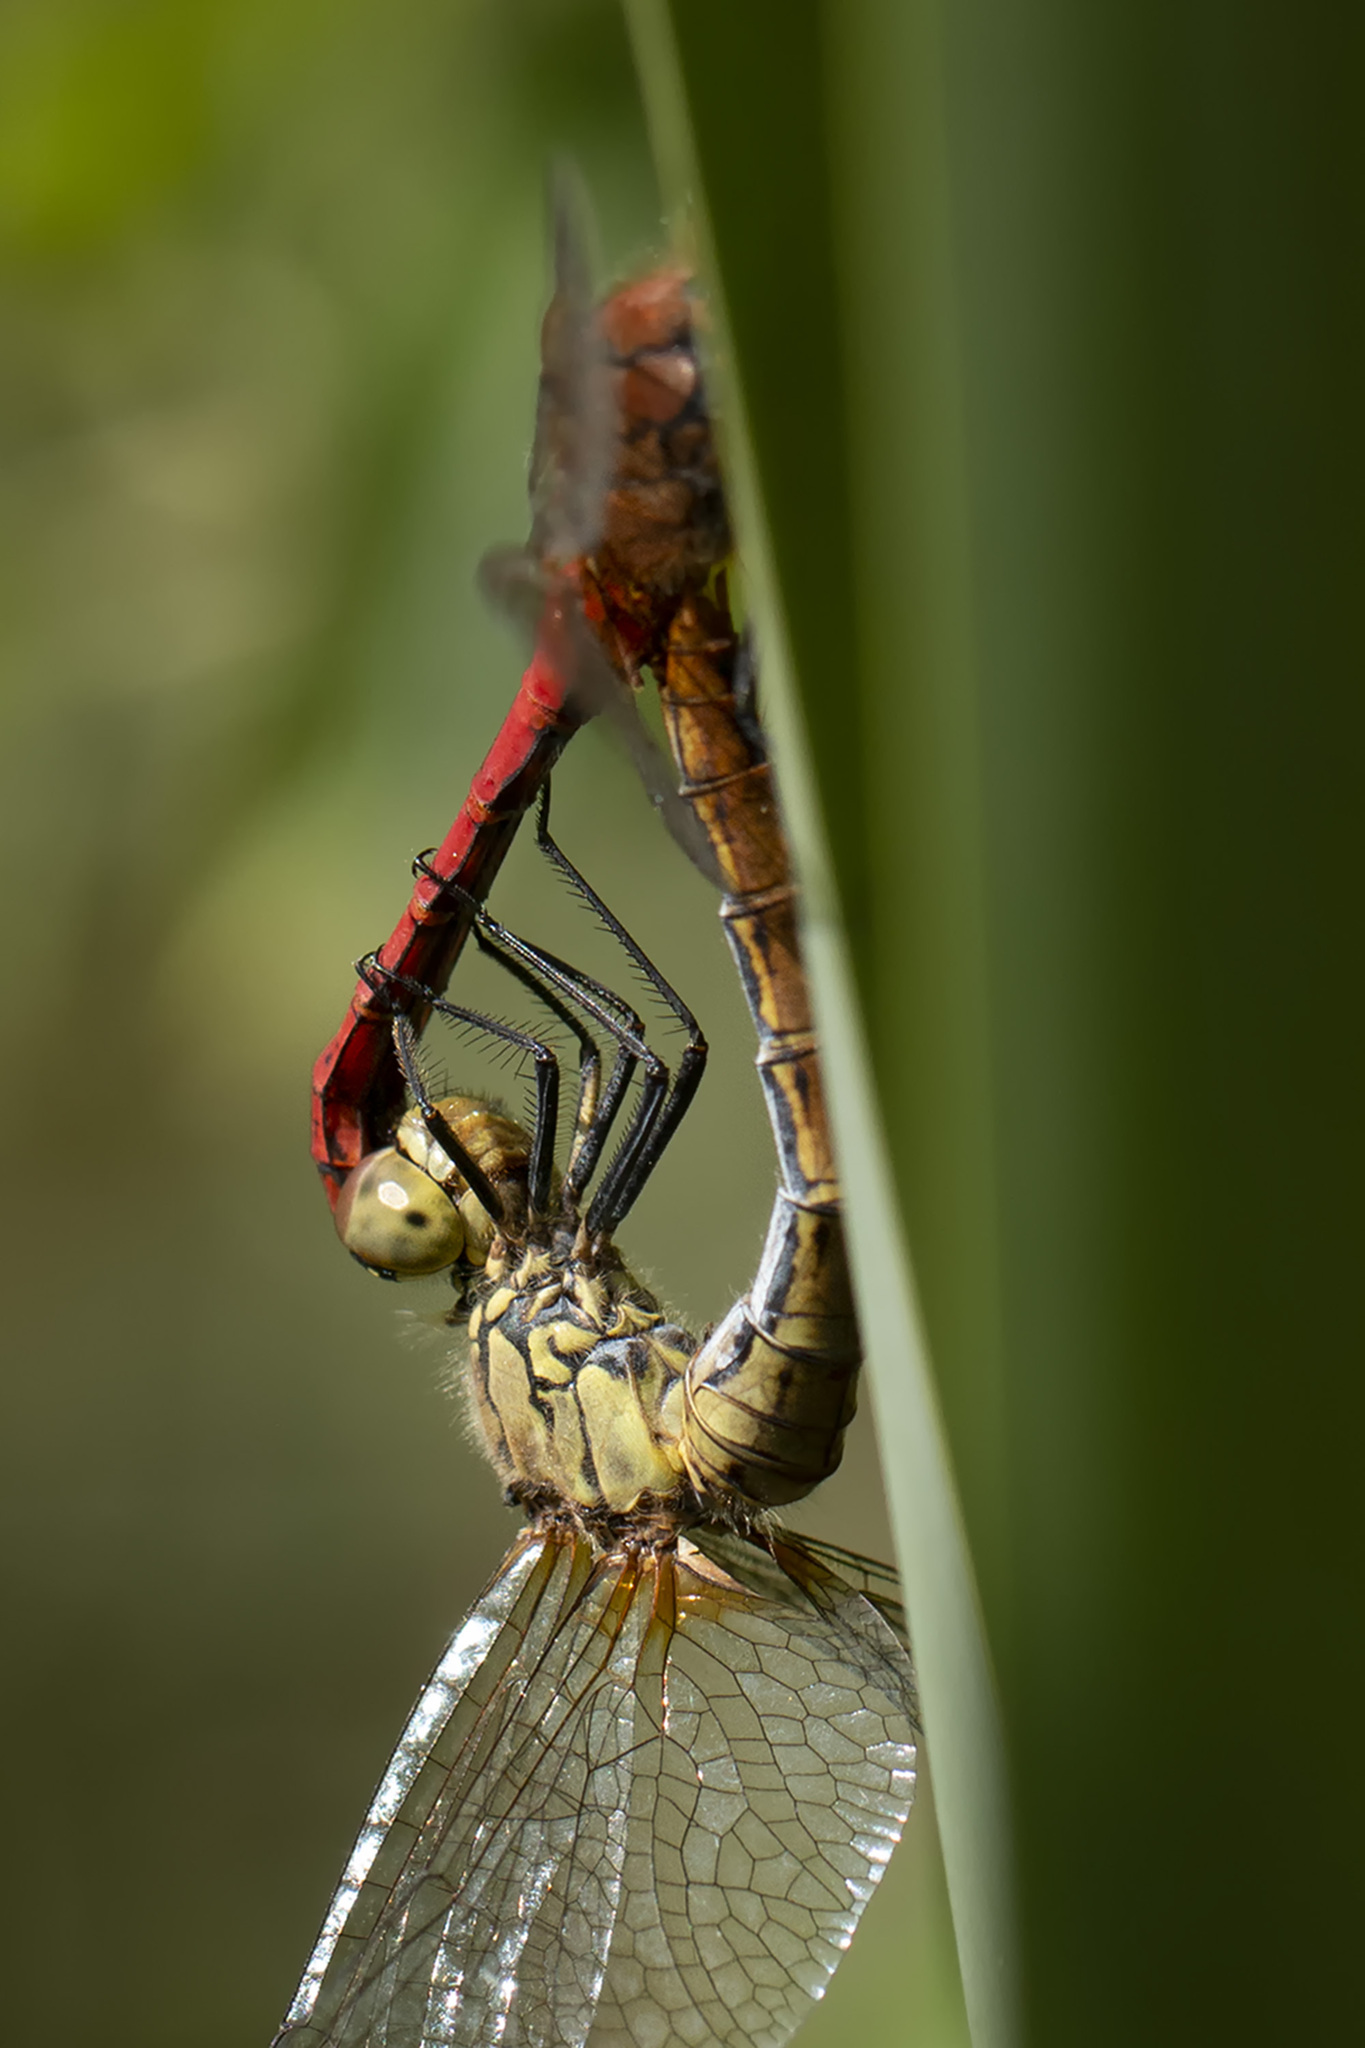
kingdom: Animalia
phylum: Arthropoda
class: Insecta
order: Odonata
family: Libellulidae
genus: Sympetrum
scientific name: Sympetrum sanguineum
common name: Ruddy darter
